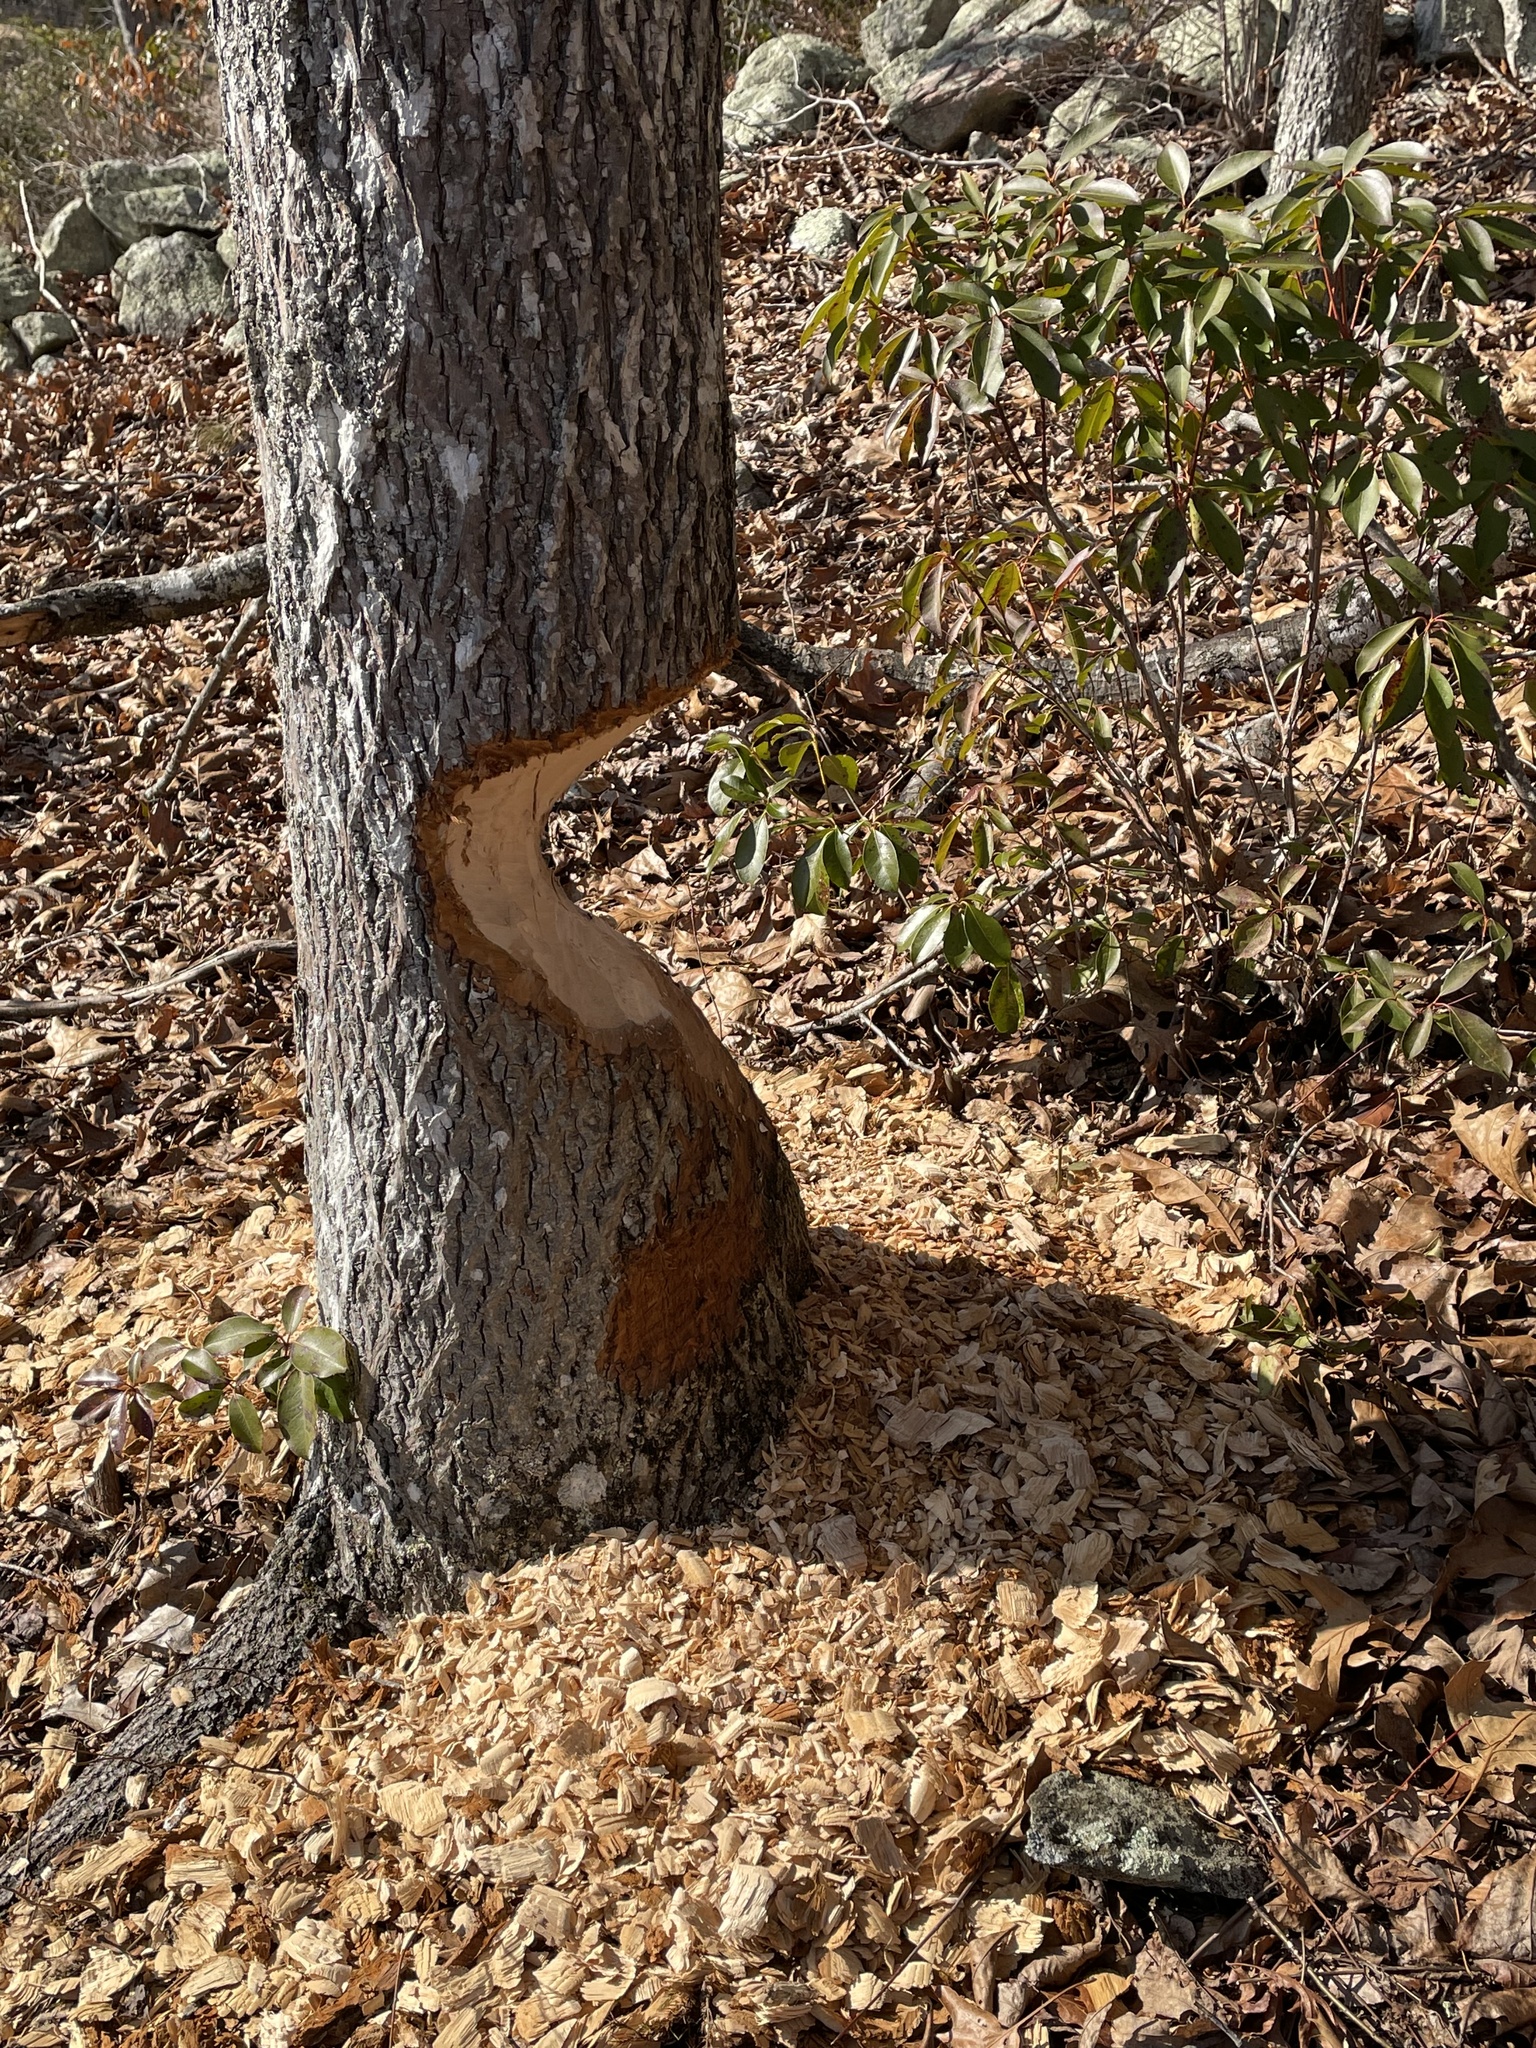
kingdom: Animalia
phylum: Chordata
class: Mammalia
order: Rodentia
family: Castoridae
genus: Castor
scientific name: Castor canadensis
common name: American beaver
